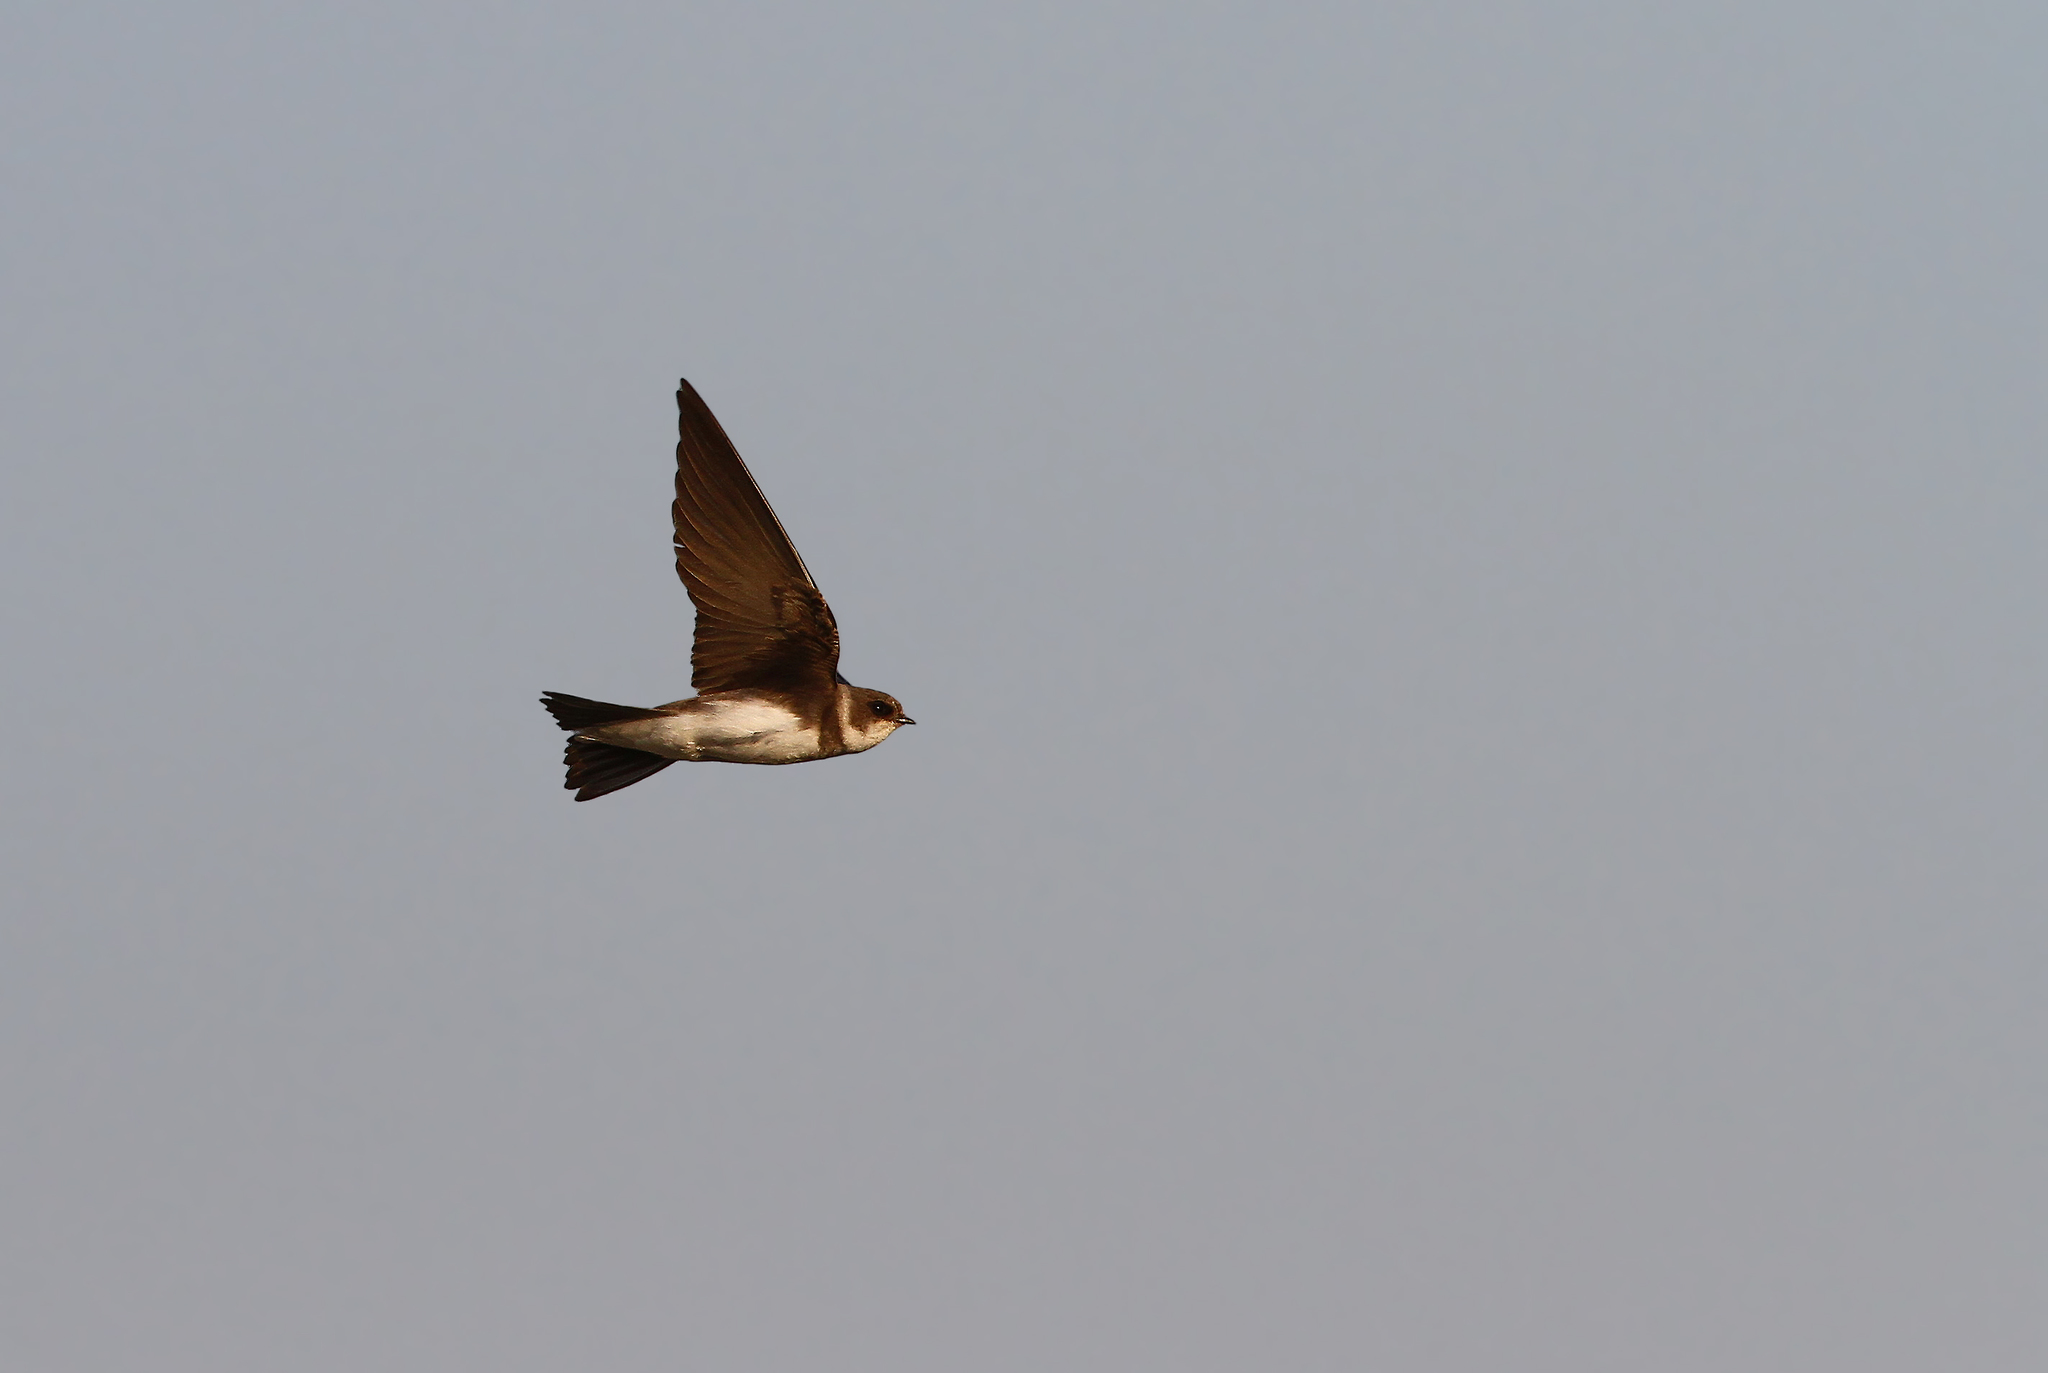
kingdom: Animalia
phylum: Chordata
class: Aves
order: Passeriformes
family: Hirundinidae
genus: Riparia
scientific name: Riparia riparia
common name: Sand martin
